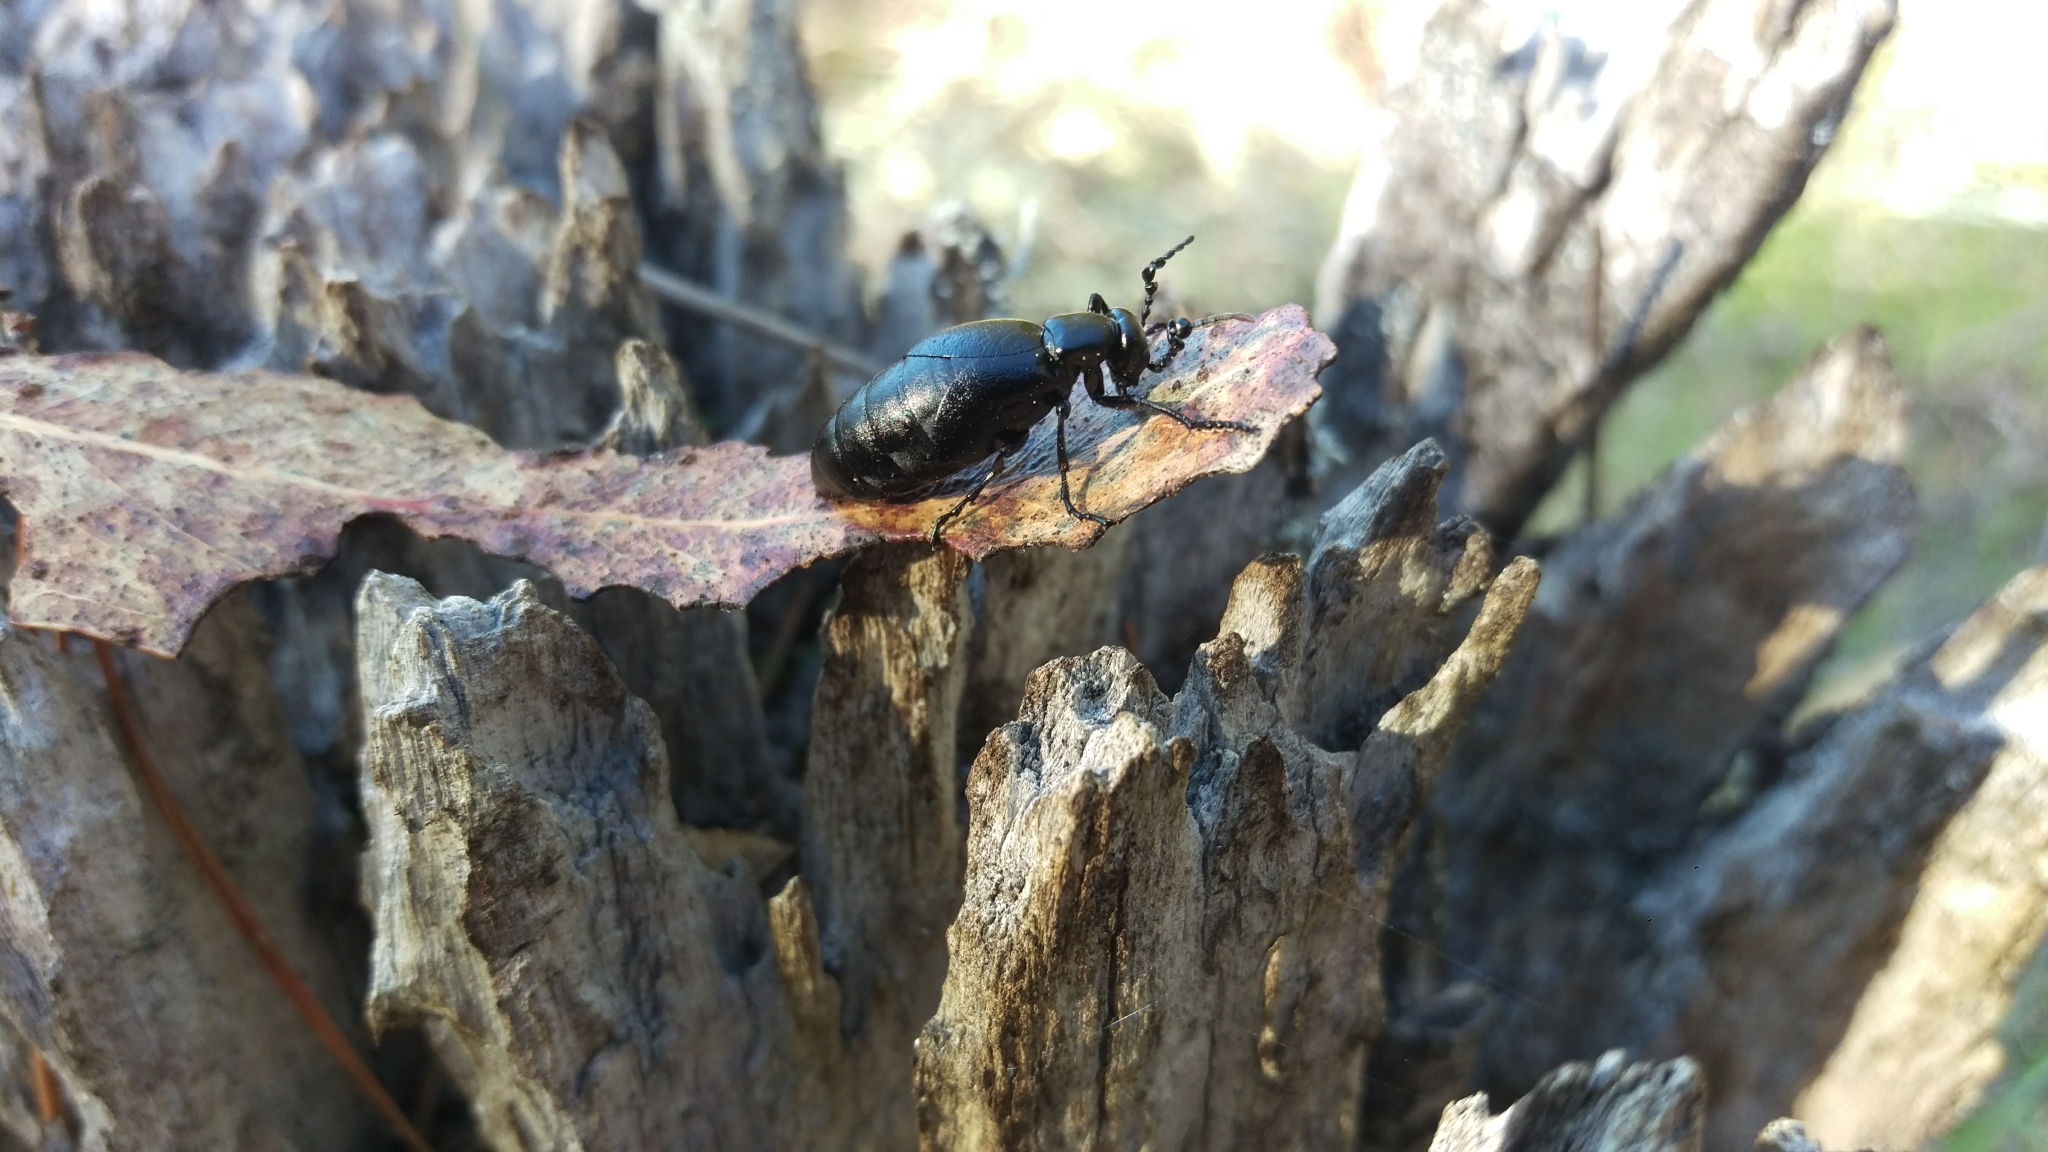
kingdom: Animalia
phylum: Arthropoda
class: Insecta
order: Coleoptera
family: Meloidae
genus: Meloe
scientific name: Meloe strigulosus
